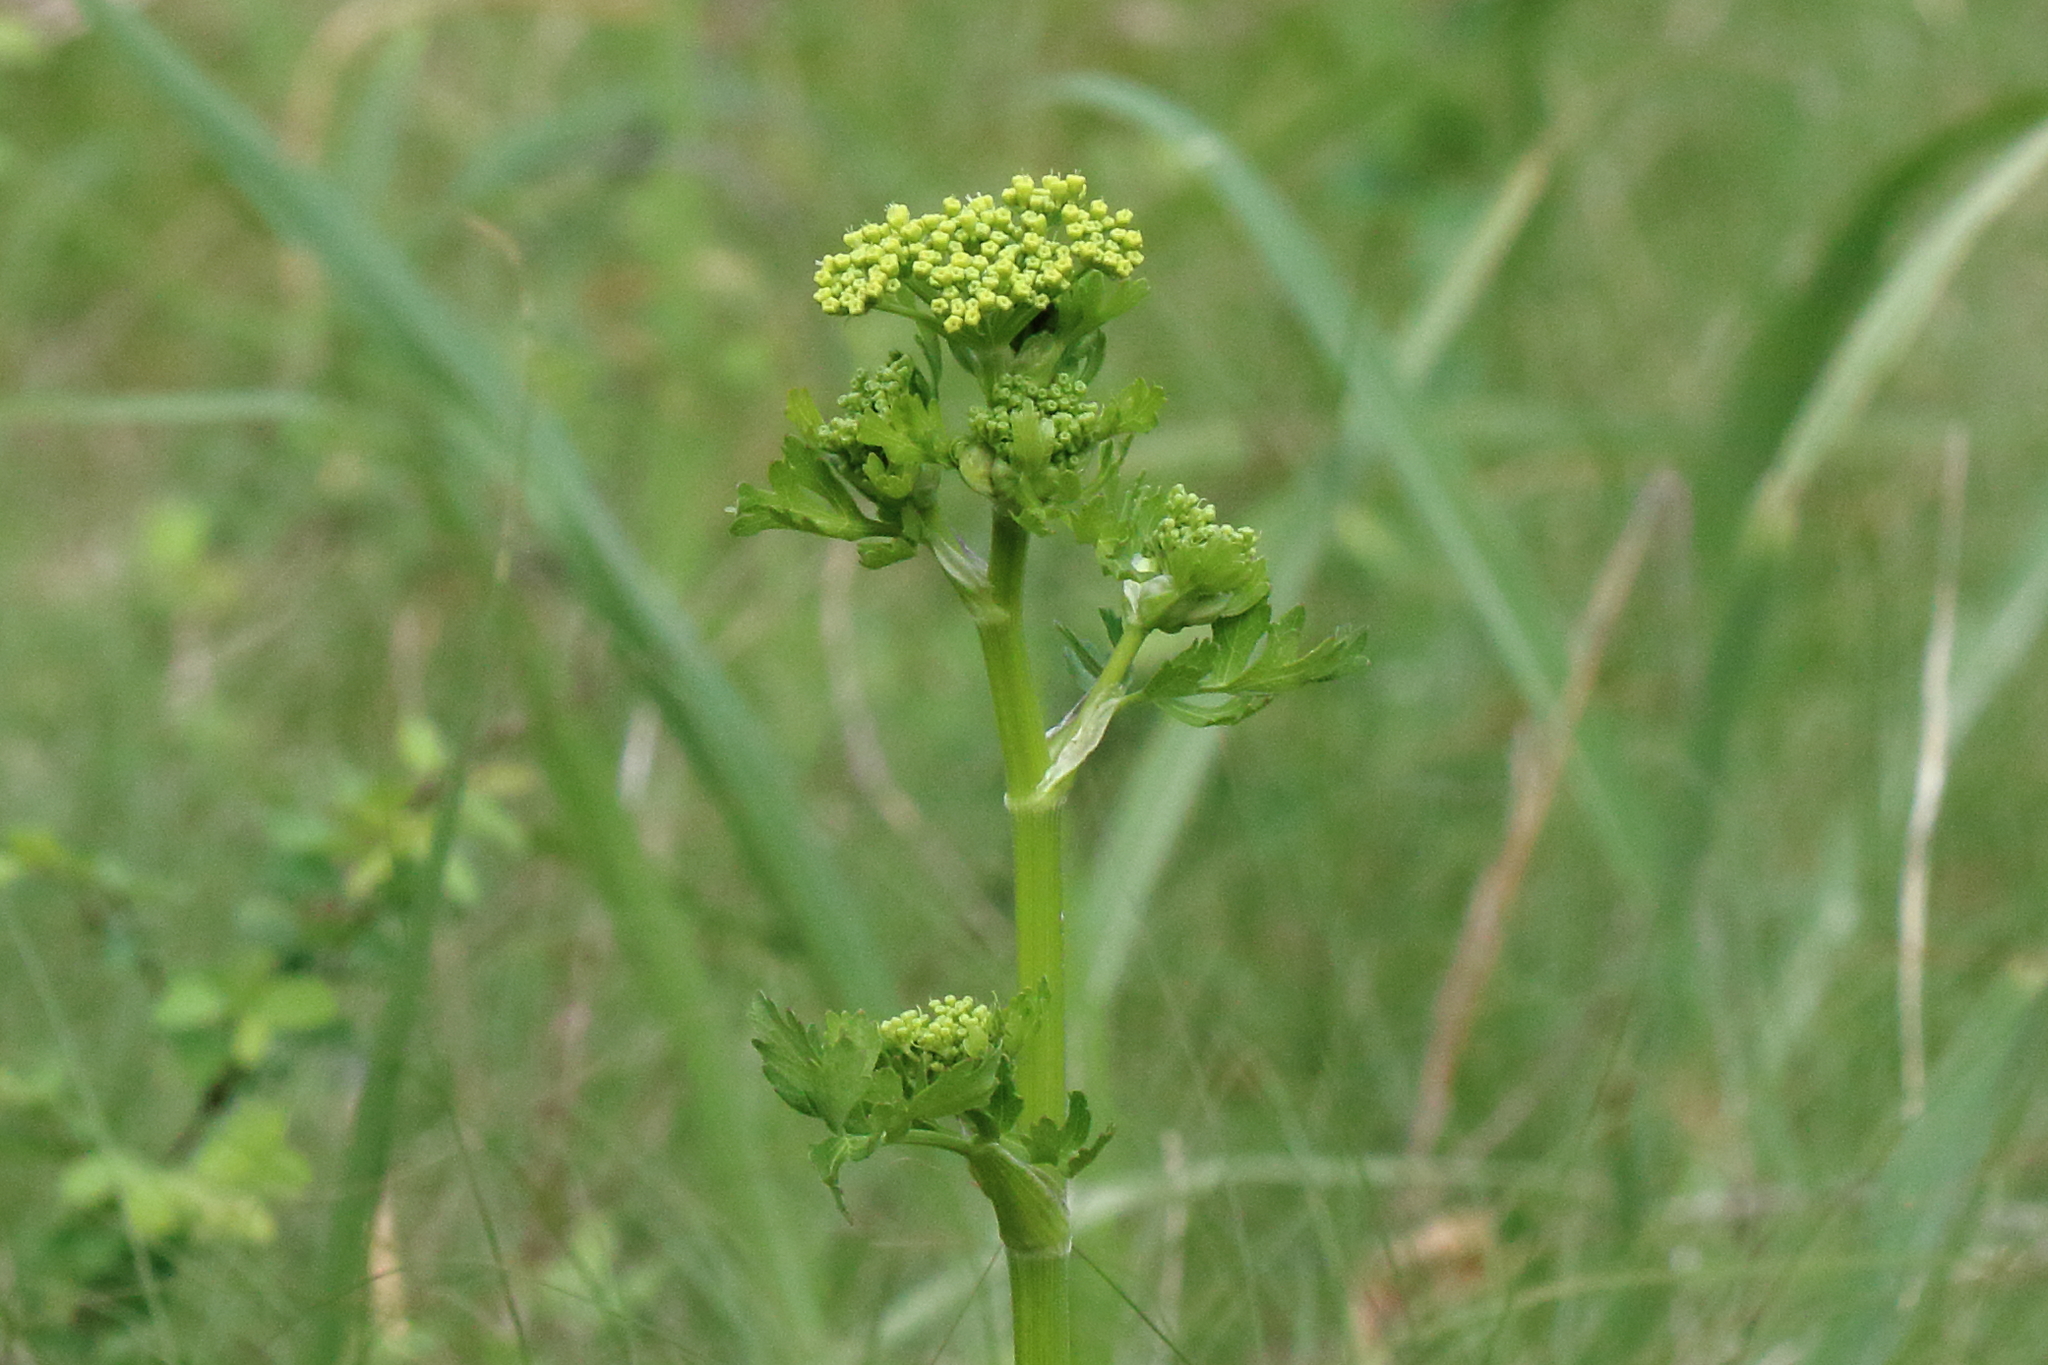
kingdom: Plantae
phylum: Tracheophyta
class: Magnoliopsida
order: Apiales
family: Apiaceae
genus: Polytaenia
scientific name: Polytaenia texana
